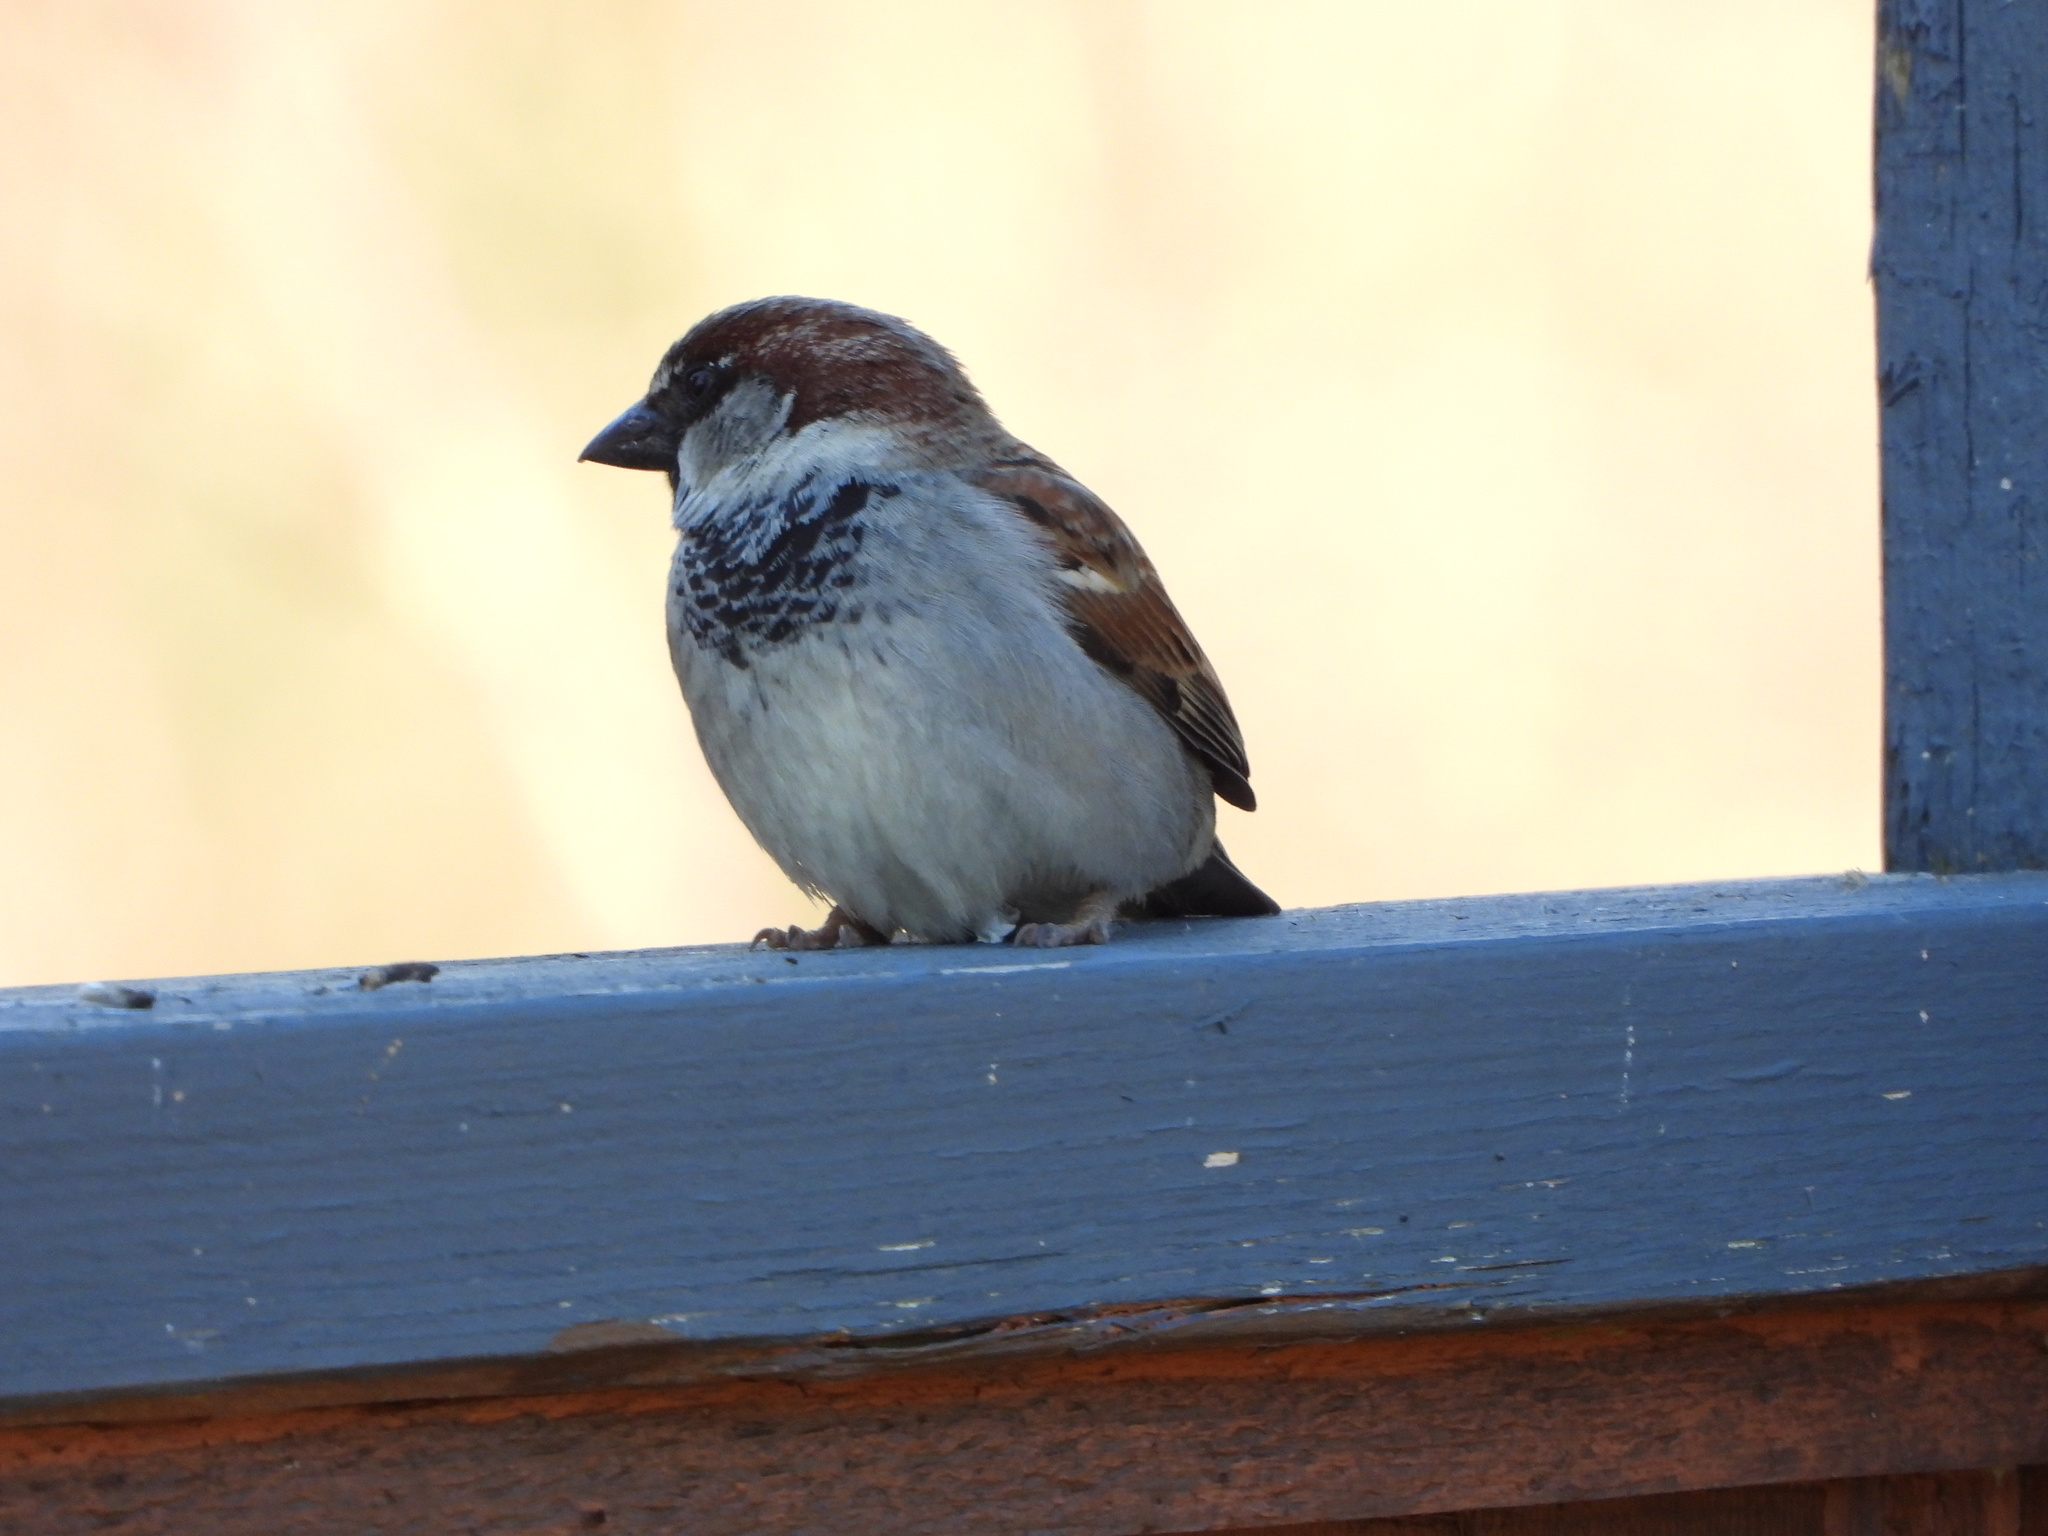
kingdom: Animalia
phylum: Chordata
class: Aves
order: Passeriformes
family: Passeridae
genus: Passer
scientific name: Passer domesticus
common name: House sparrow
